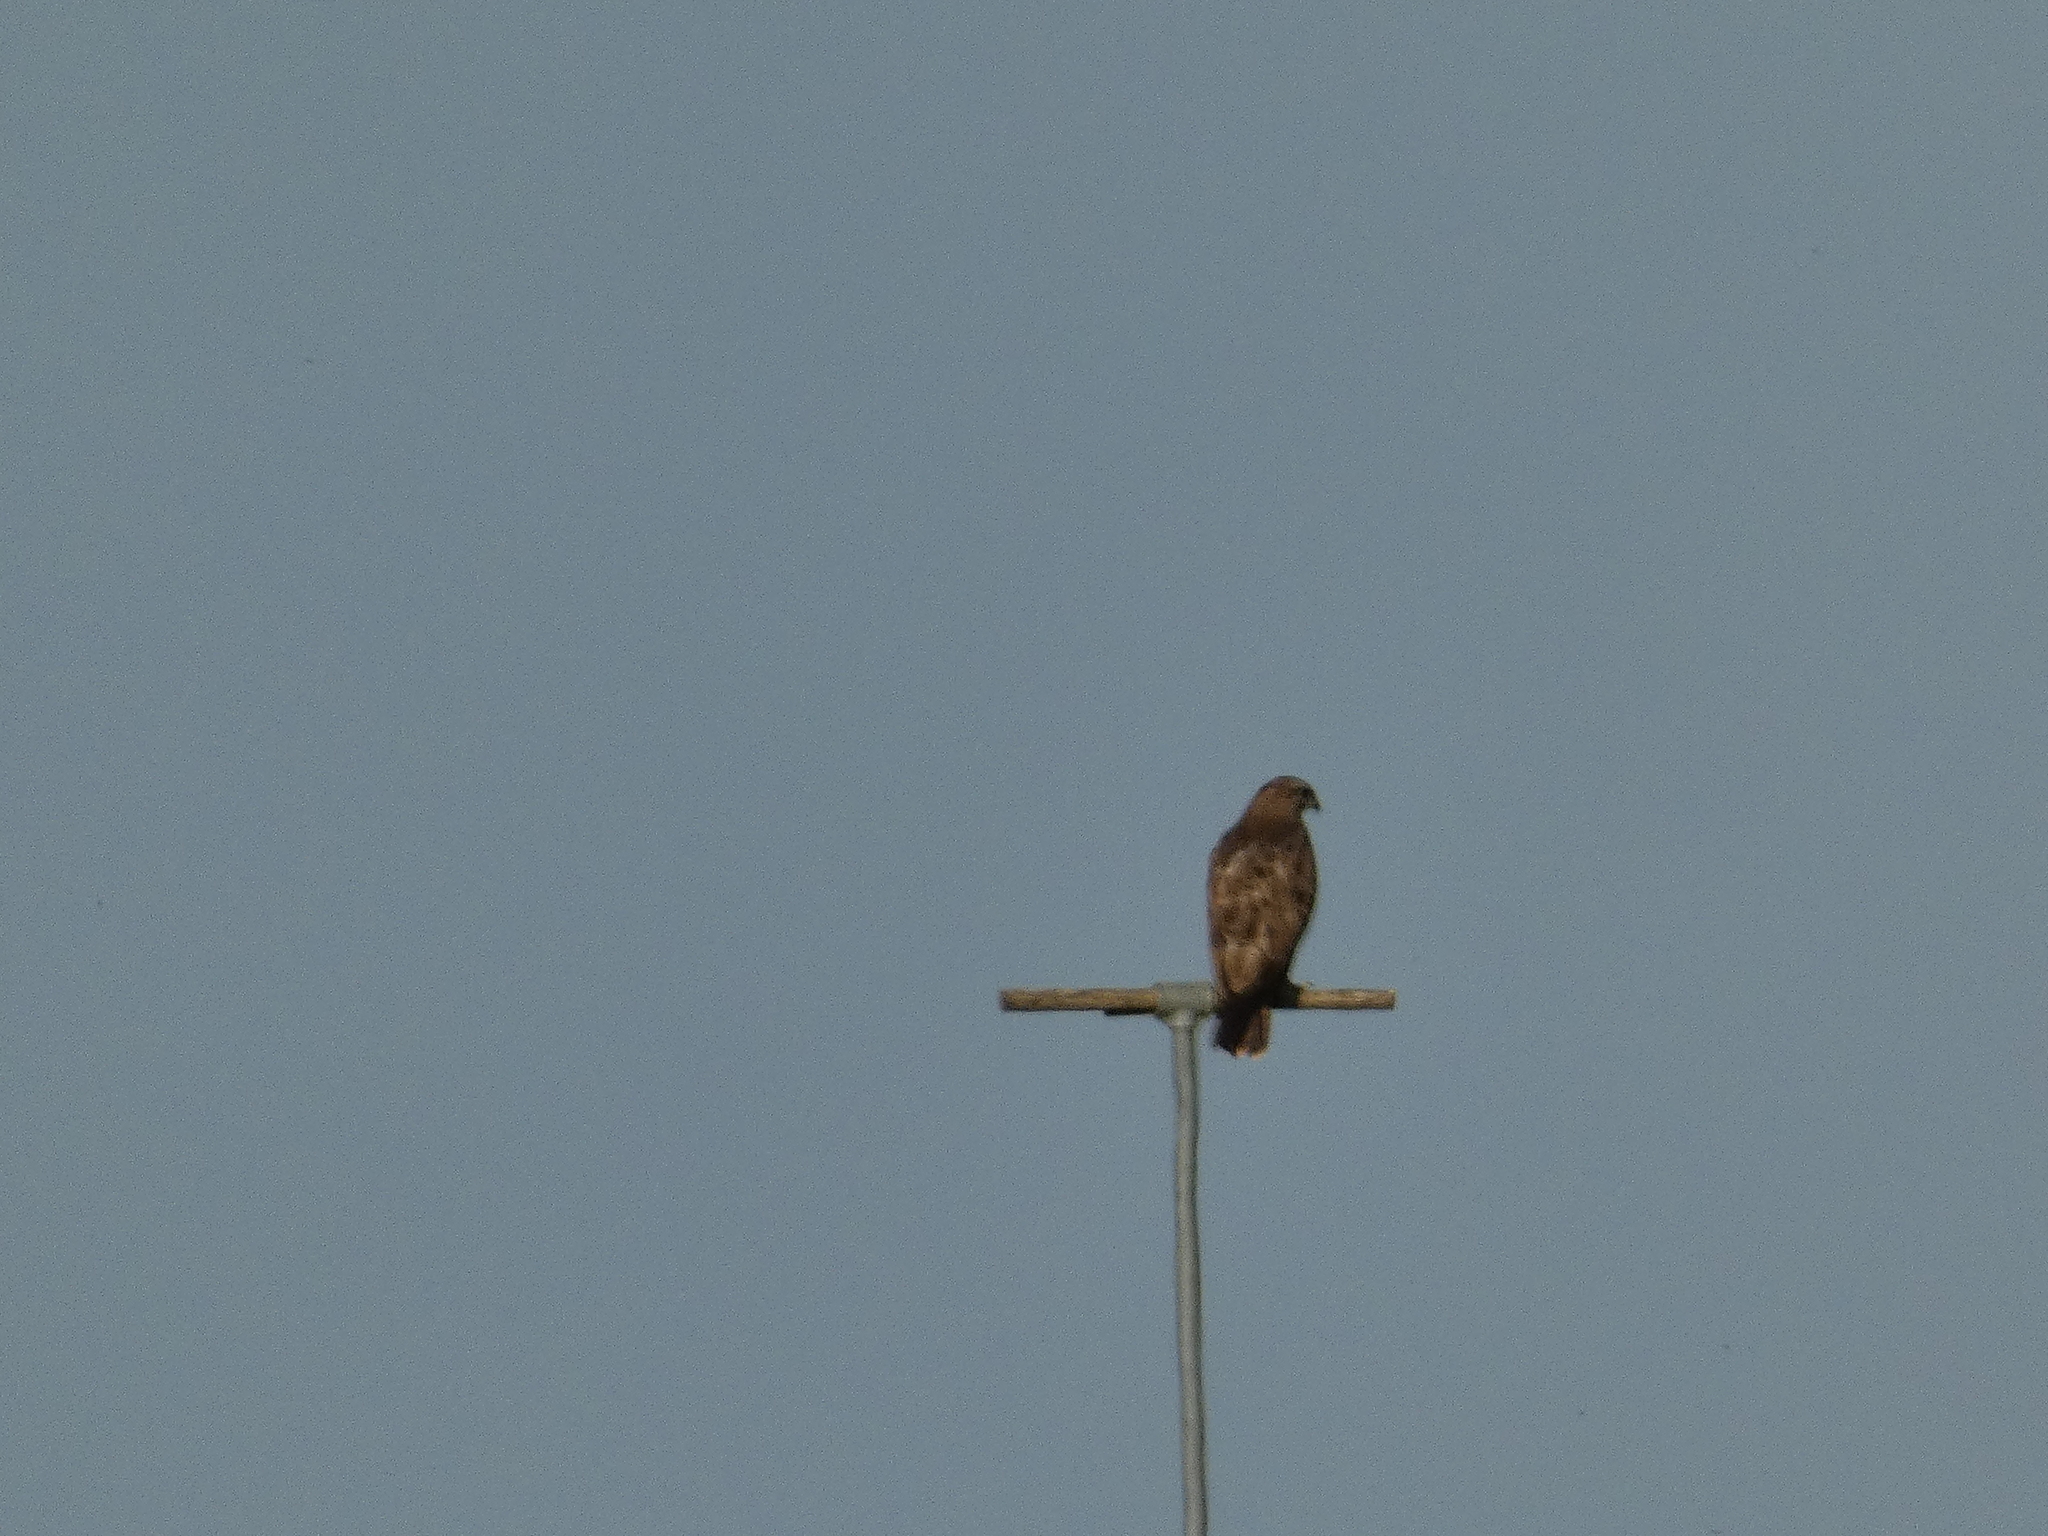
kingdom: Animalia
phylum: Chordata
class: Aves
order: Accipitriformes
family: Accipitridae
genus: Buteo
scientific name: Buteo buteo
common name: Common buzzard
